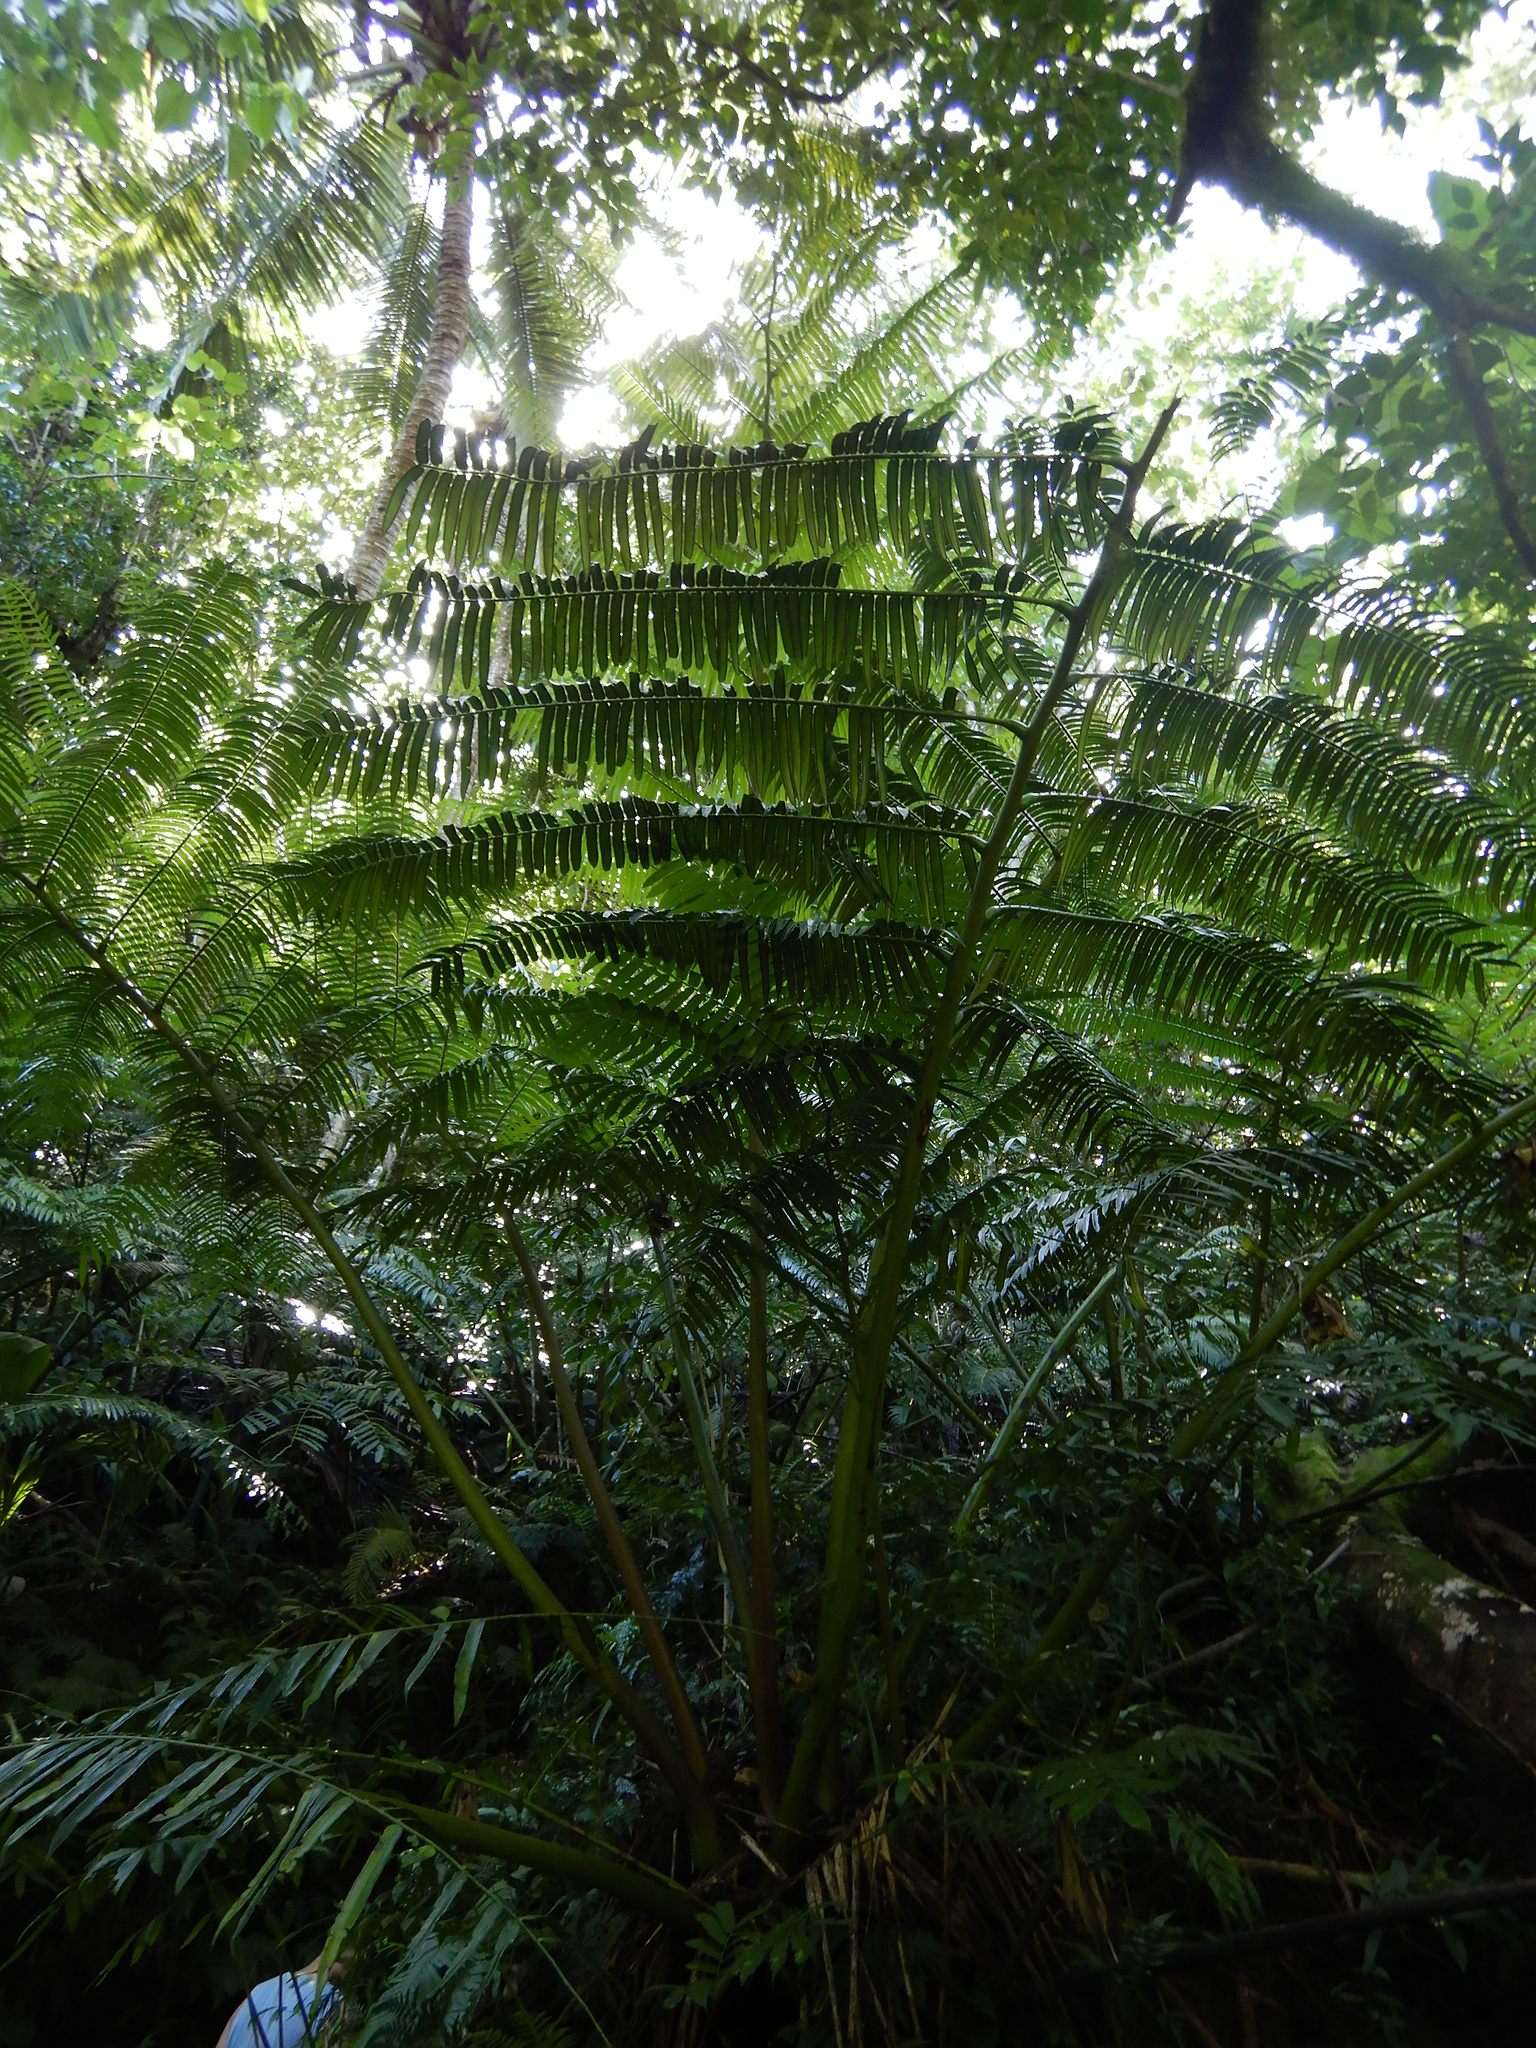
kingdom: Plantae
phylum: Tracheophyta
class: Polypodiopsida
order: Marattiales
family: Marattiaceae
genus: Angiopteris
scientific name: Angiopteris evecta
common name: Mule's-foot fern
